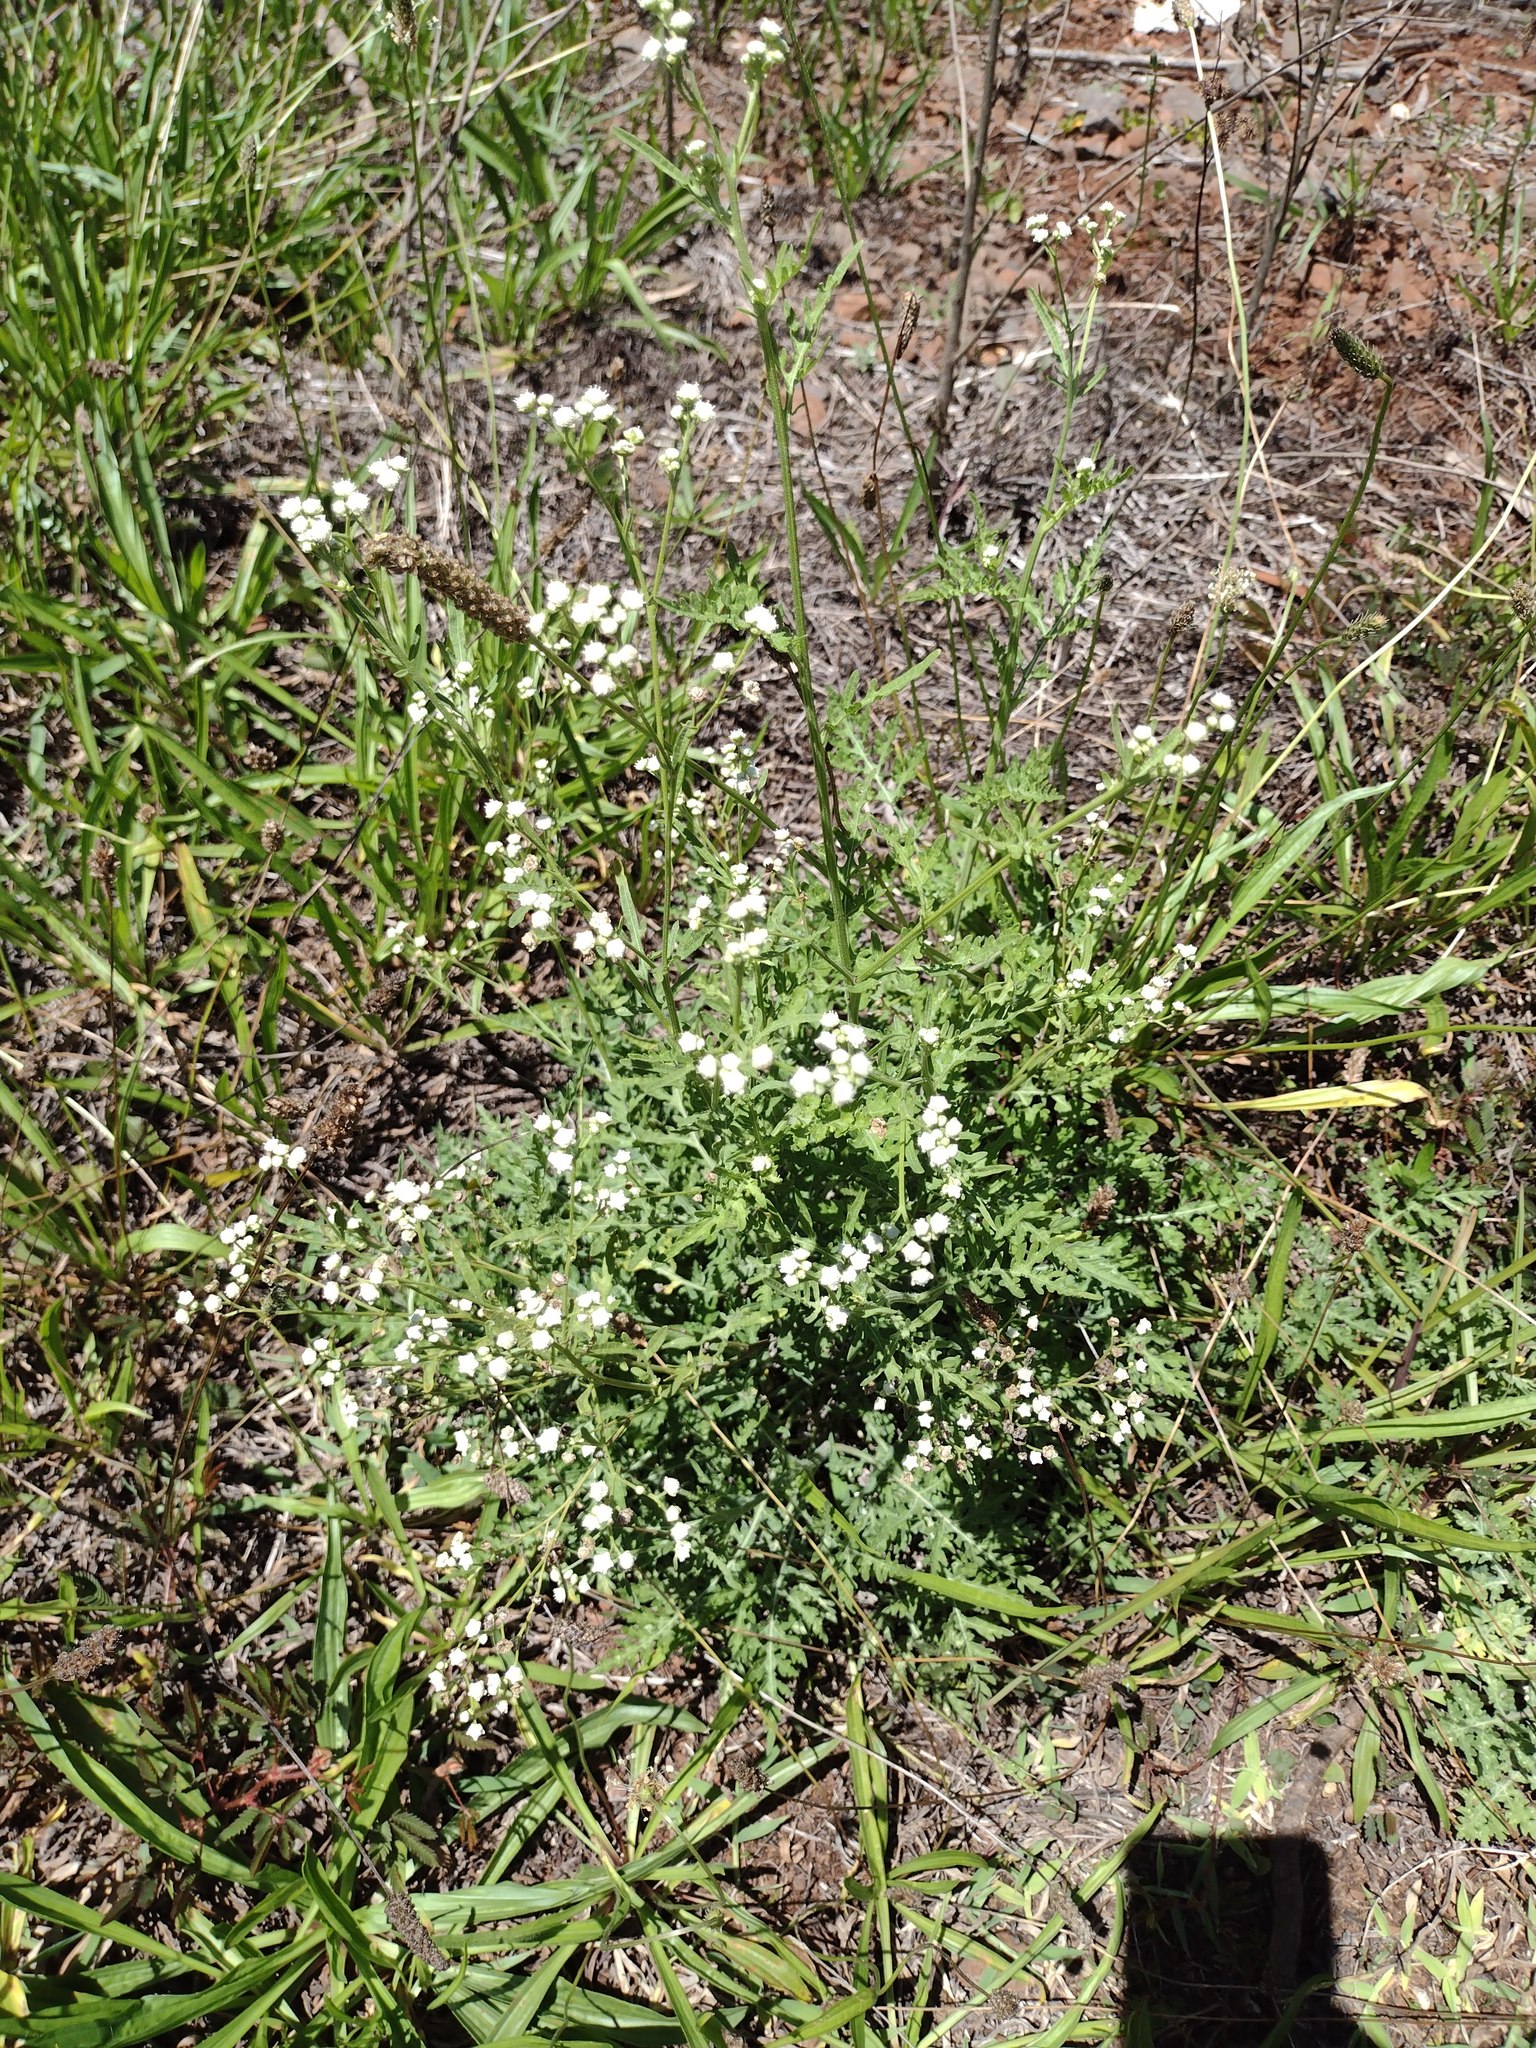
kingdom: Plantae
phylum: Tracheophyta
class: Magnoliopsida
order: Asterales
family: Asteraceae
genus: Parthenium
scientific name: Parthenium hysterophorus
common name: Santa maria feverfew
